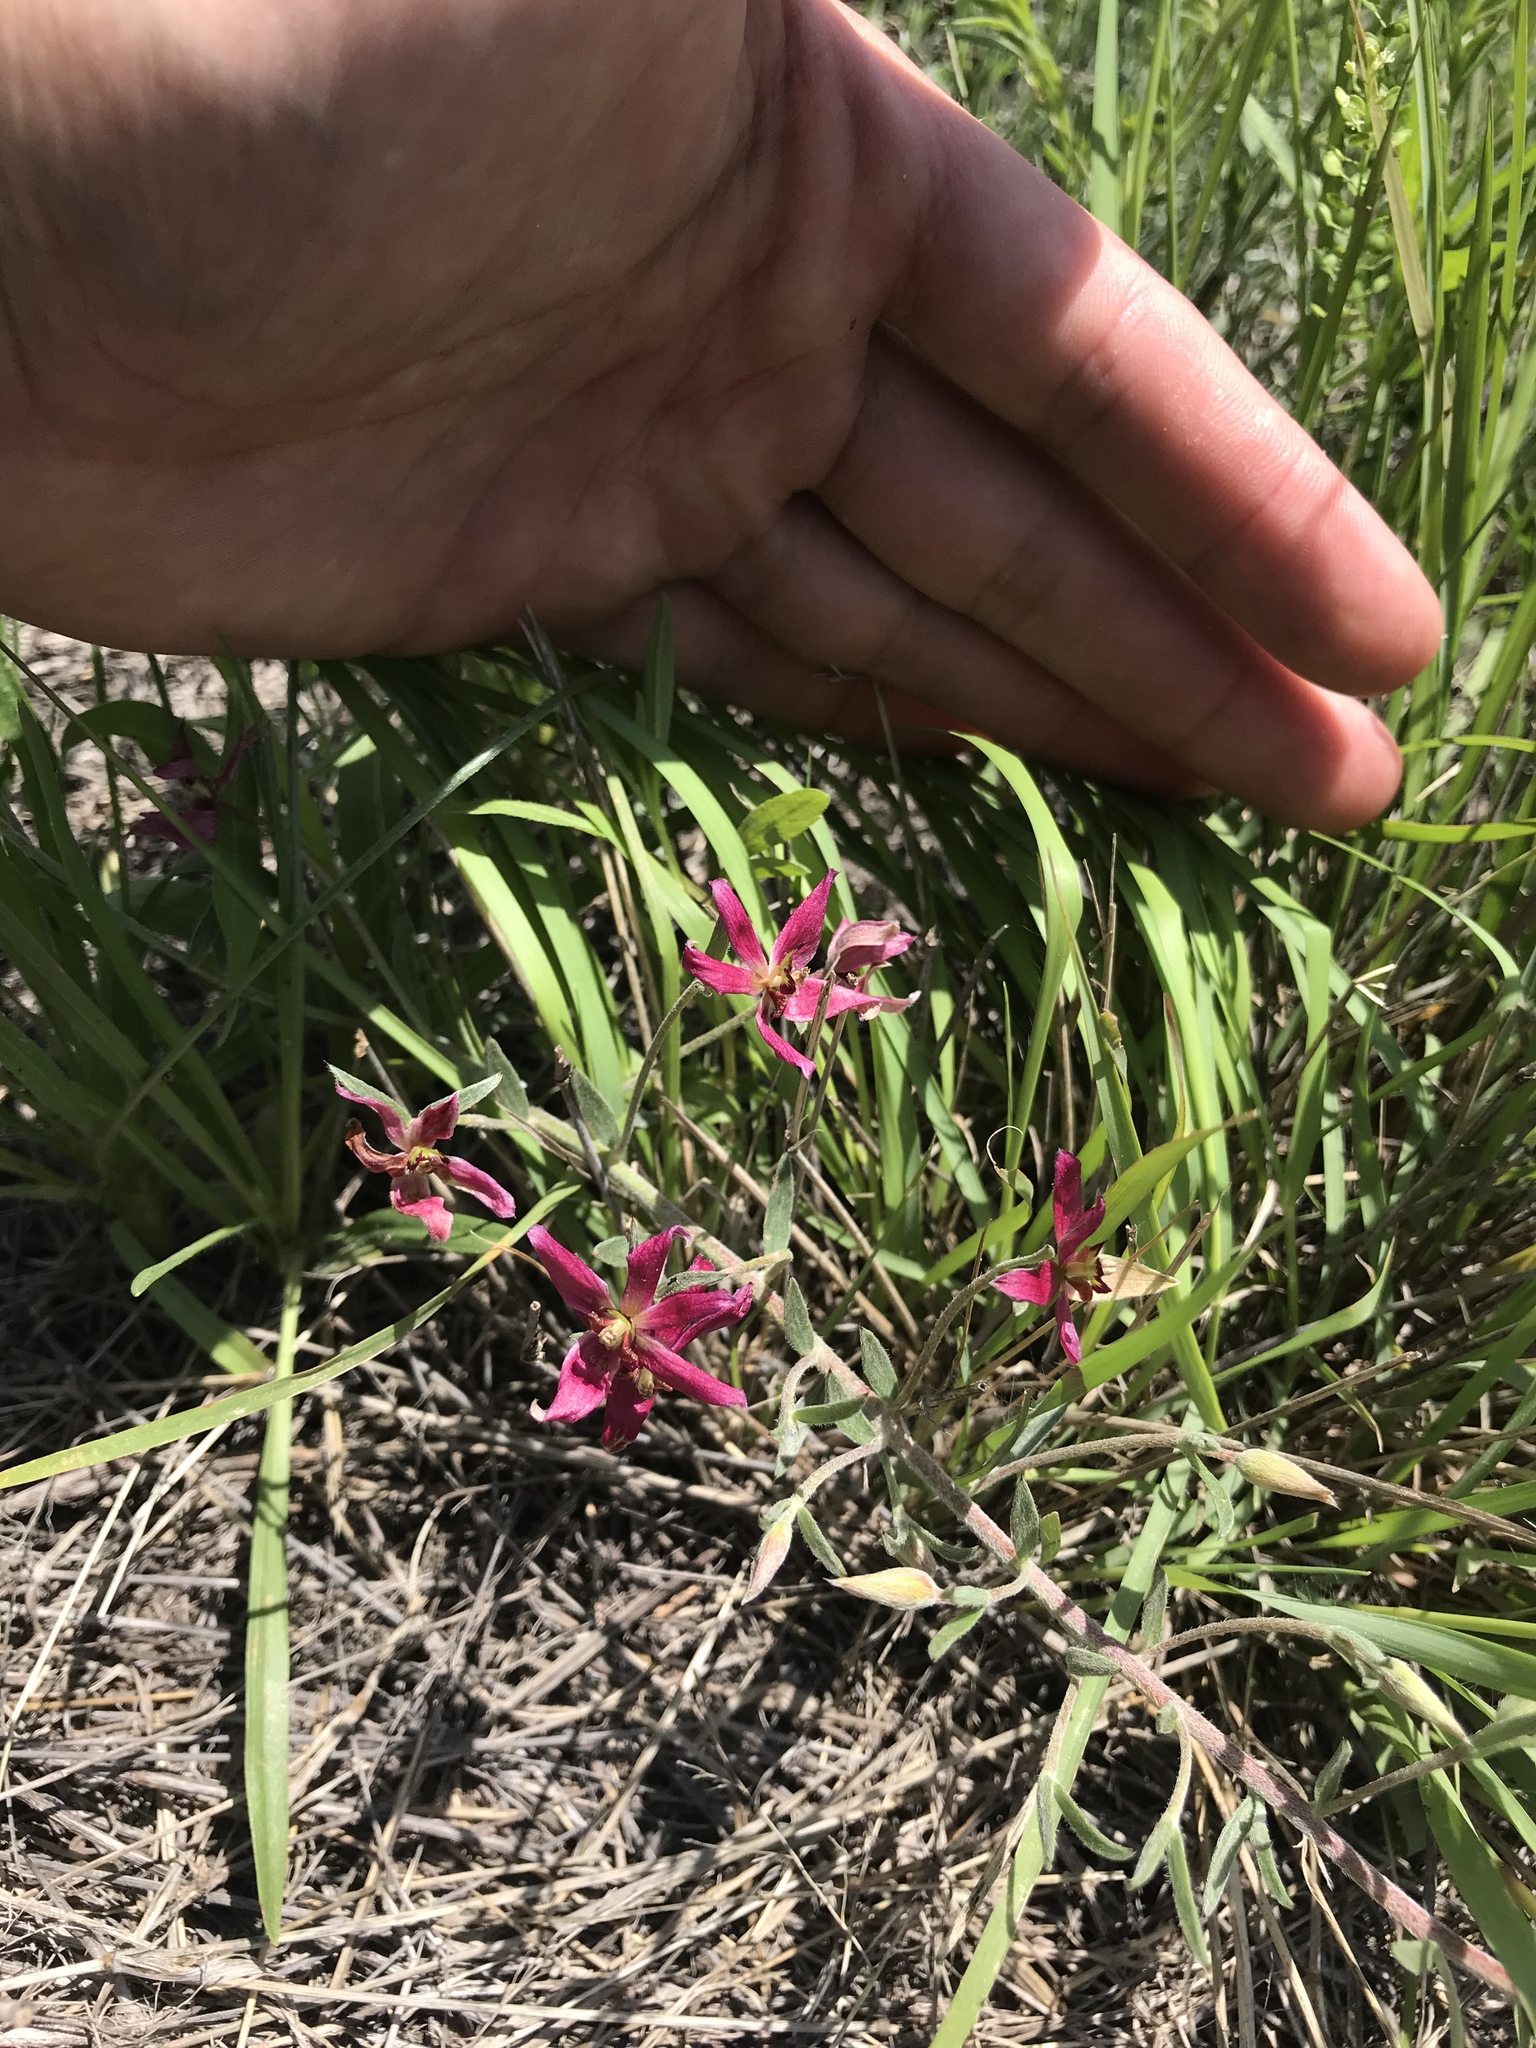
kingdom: Plantae
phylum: Tracheophyta
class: Magnoliopsida
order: Zygophyllales
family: Krameriaceae
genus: Krameria
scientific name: Krameria lanceolata
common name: Ratany
